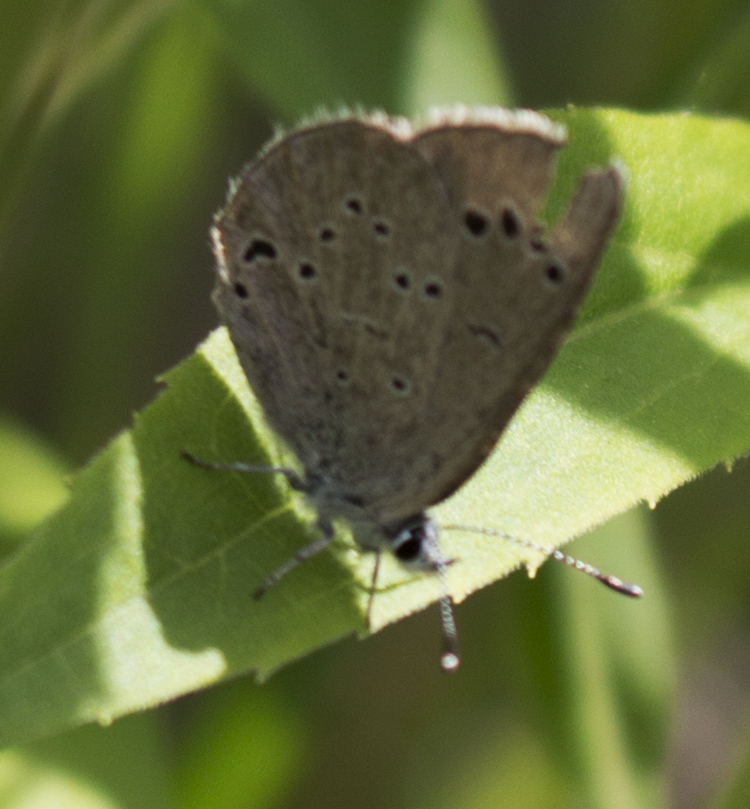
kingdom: Animalia
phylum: Arthropoda
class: Insecta
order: Lepidoptera
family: Lycaenidae
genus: Glaucopsyche
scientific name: Glaucopsyche lygdamus
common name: Silvery blue
